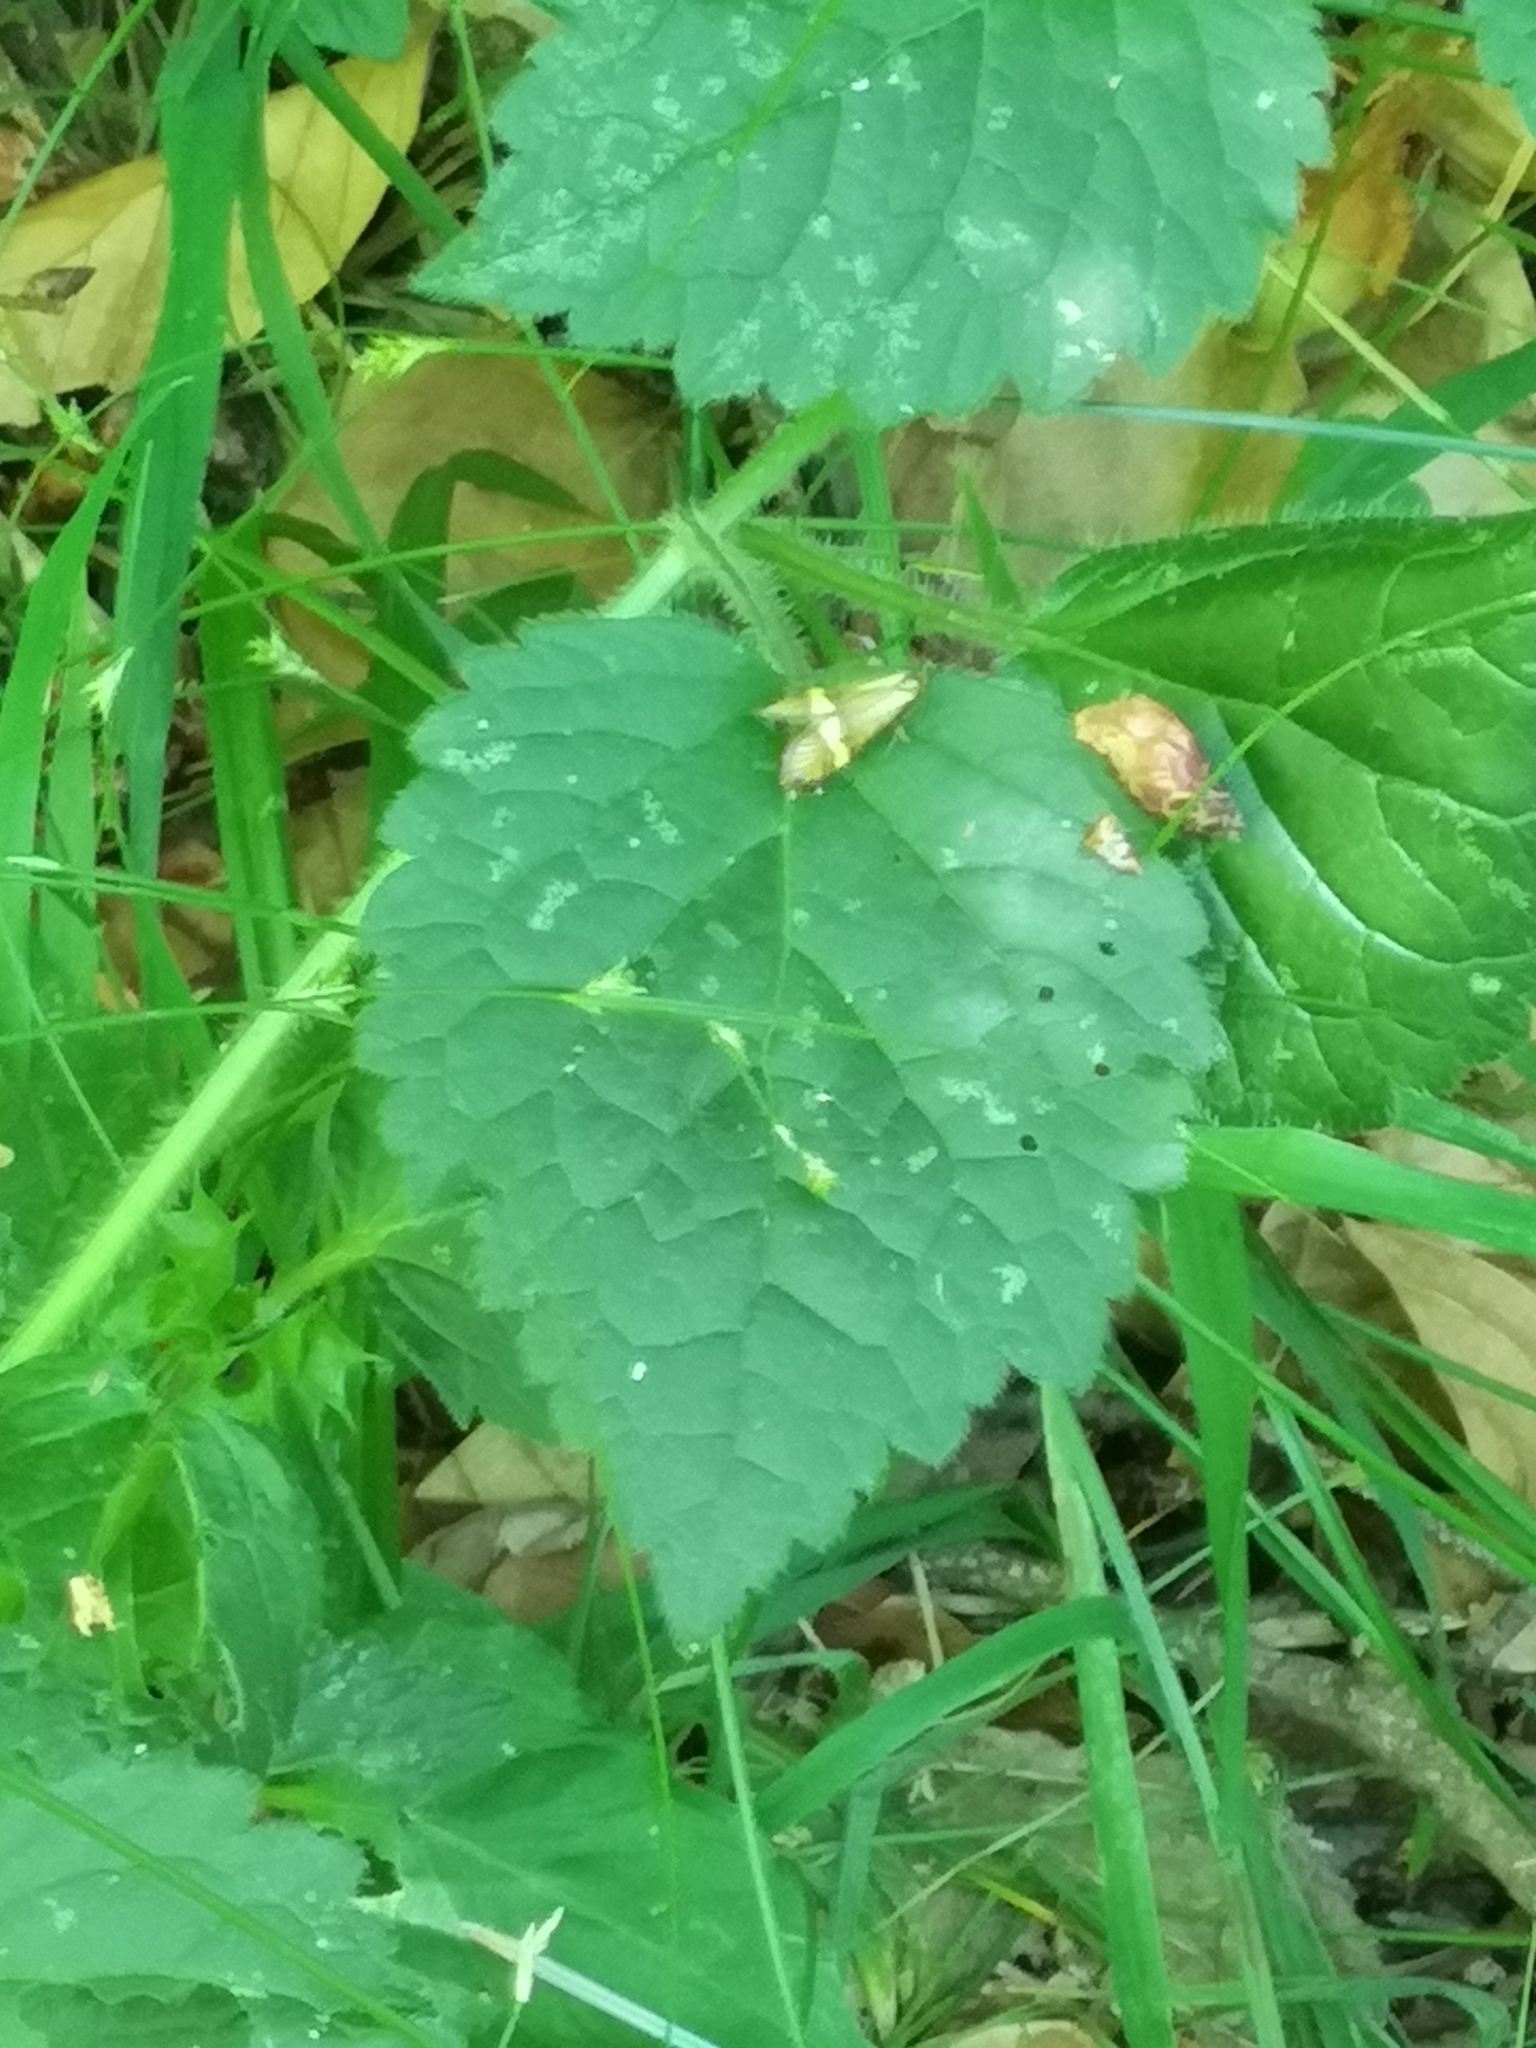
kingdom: Animalia
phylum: Arthropoda
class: Insecta
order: Lepidoptera
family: Adelidae
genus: Nemophora
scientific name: Nemophora degeerella
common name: Yellow-barred long-horn
